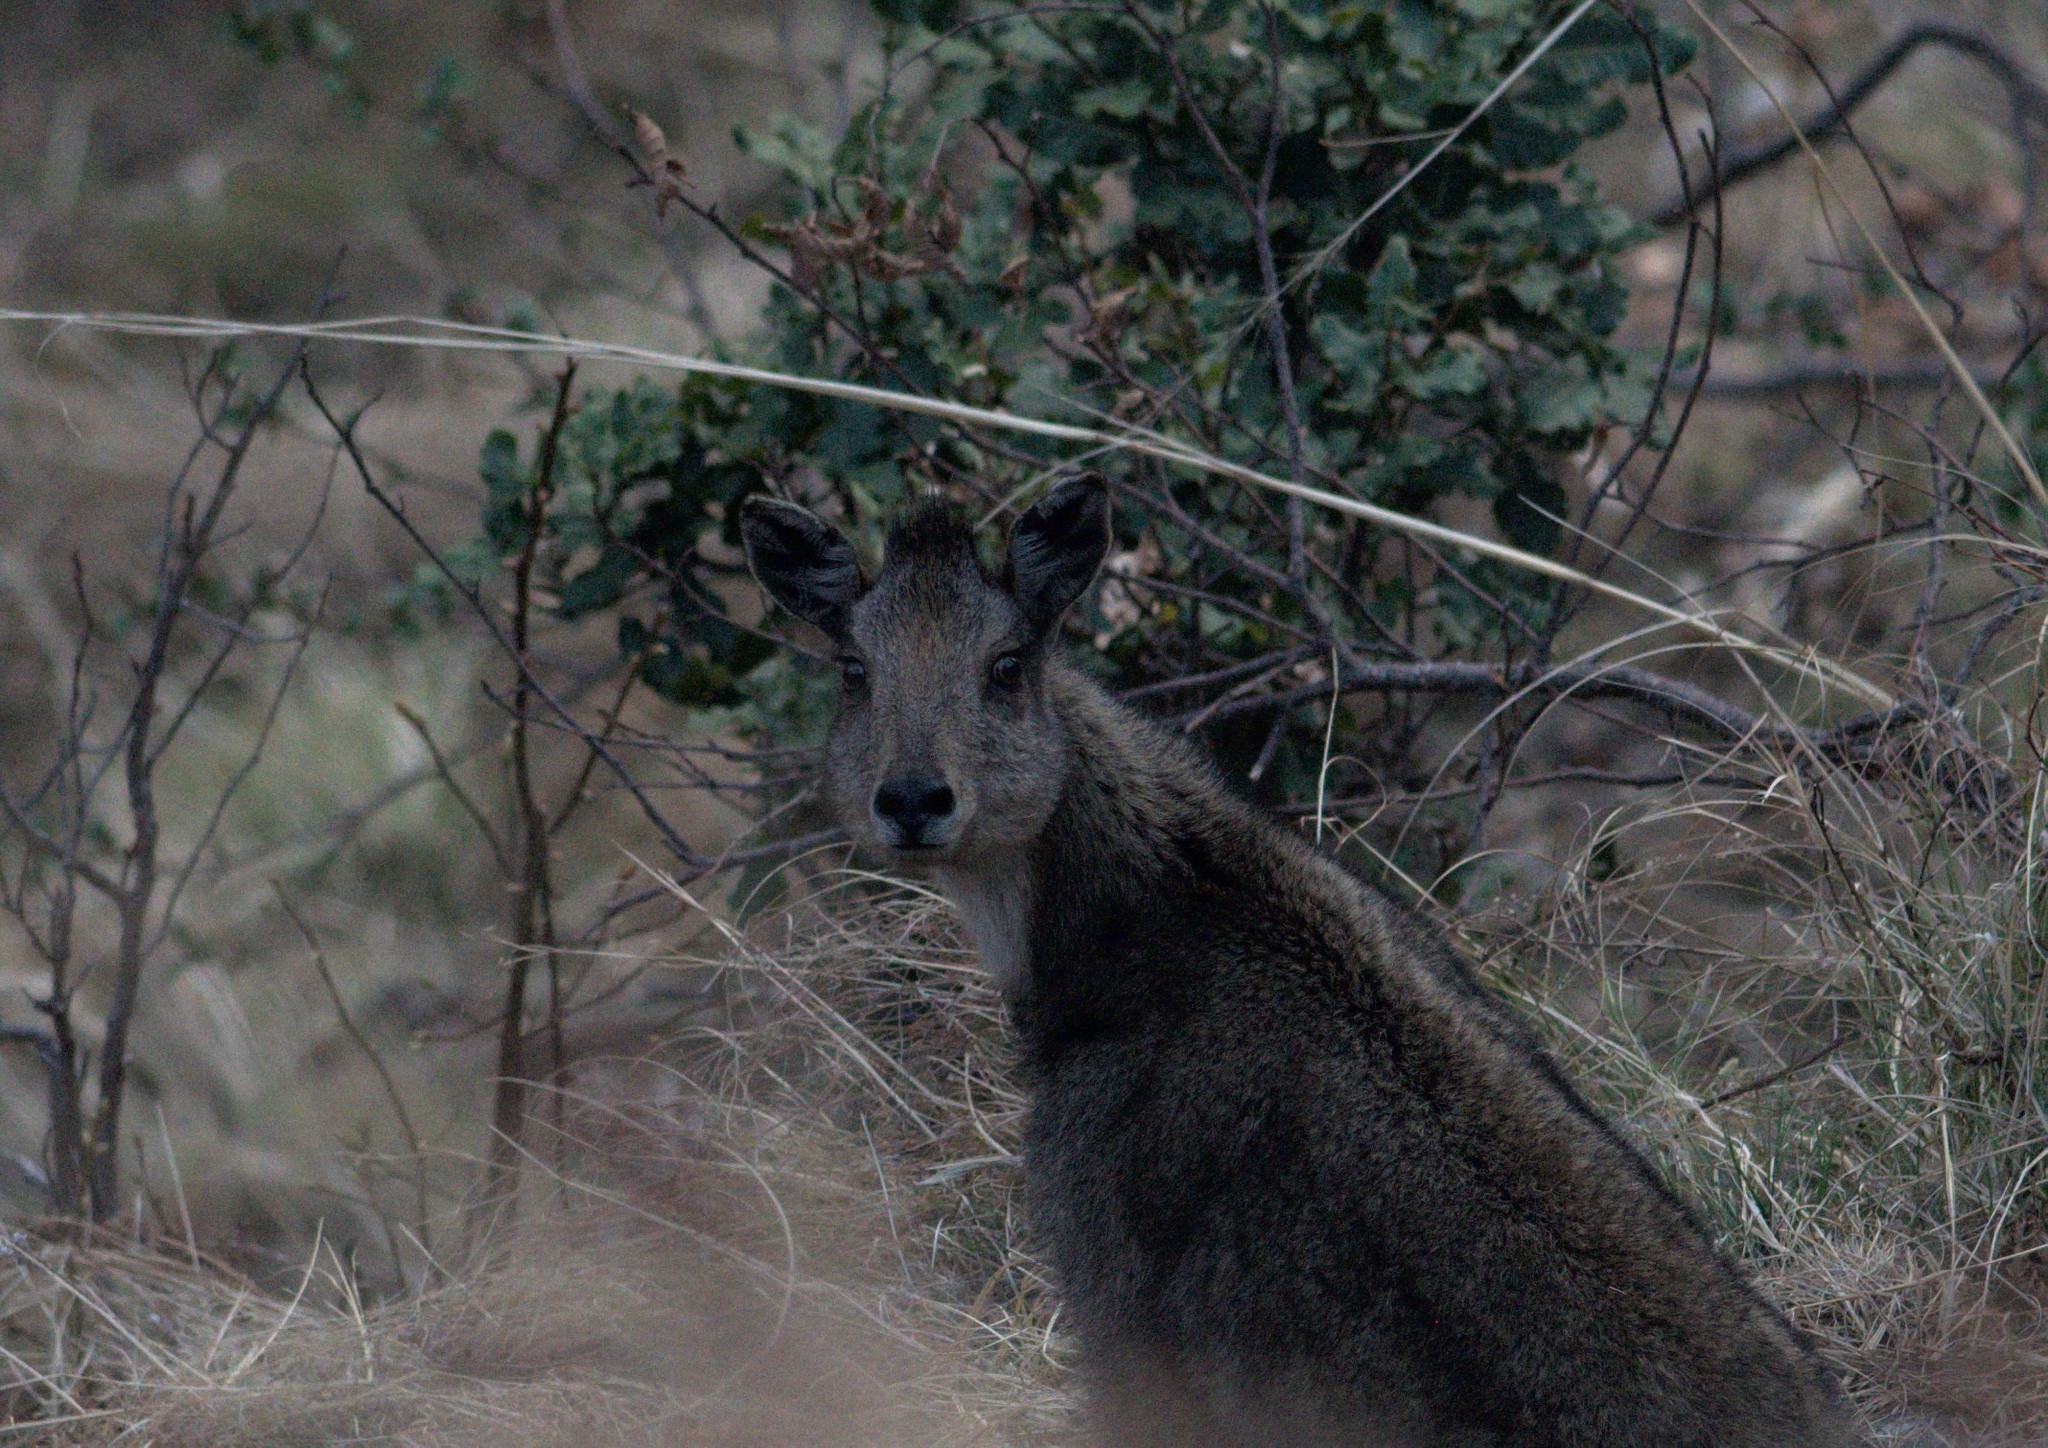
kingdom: Animalia
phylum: Chordata
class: Mammalia
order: Artiodactyla
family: Bovidae
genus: Naemorhedus
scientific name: Naemorhedus goral
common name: Goral
